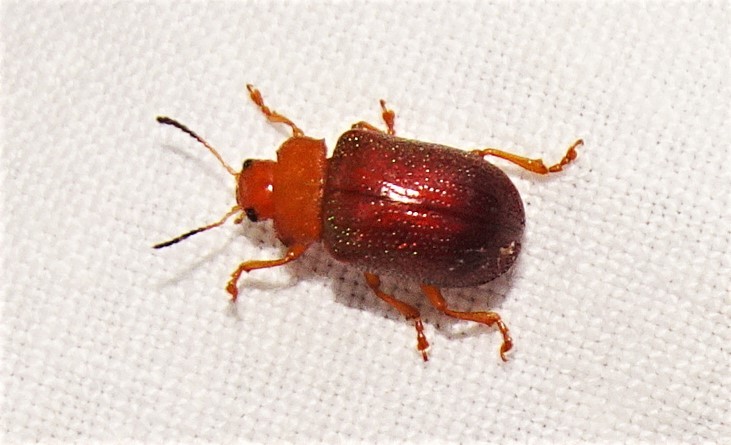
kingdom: Animalia
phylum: Arthropoda
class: Insecta
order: Coleoptera
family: Chrysomelidae
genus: Calomela
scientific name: Calomela
